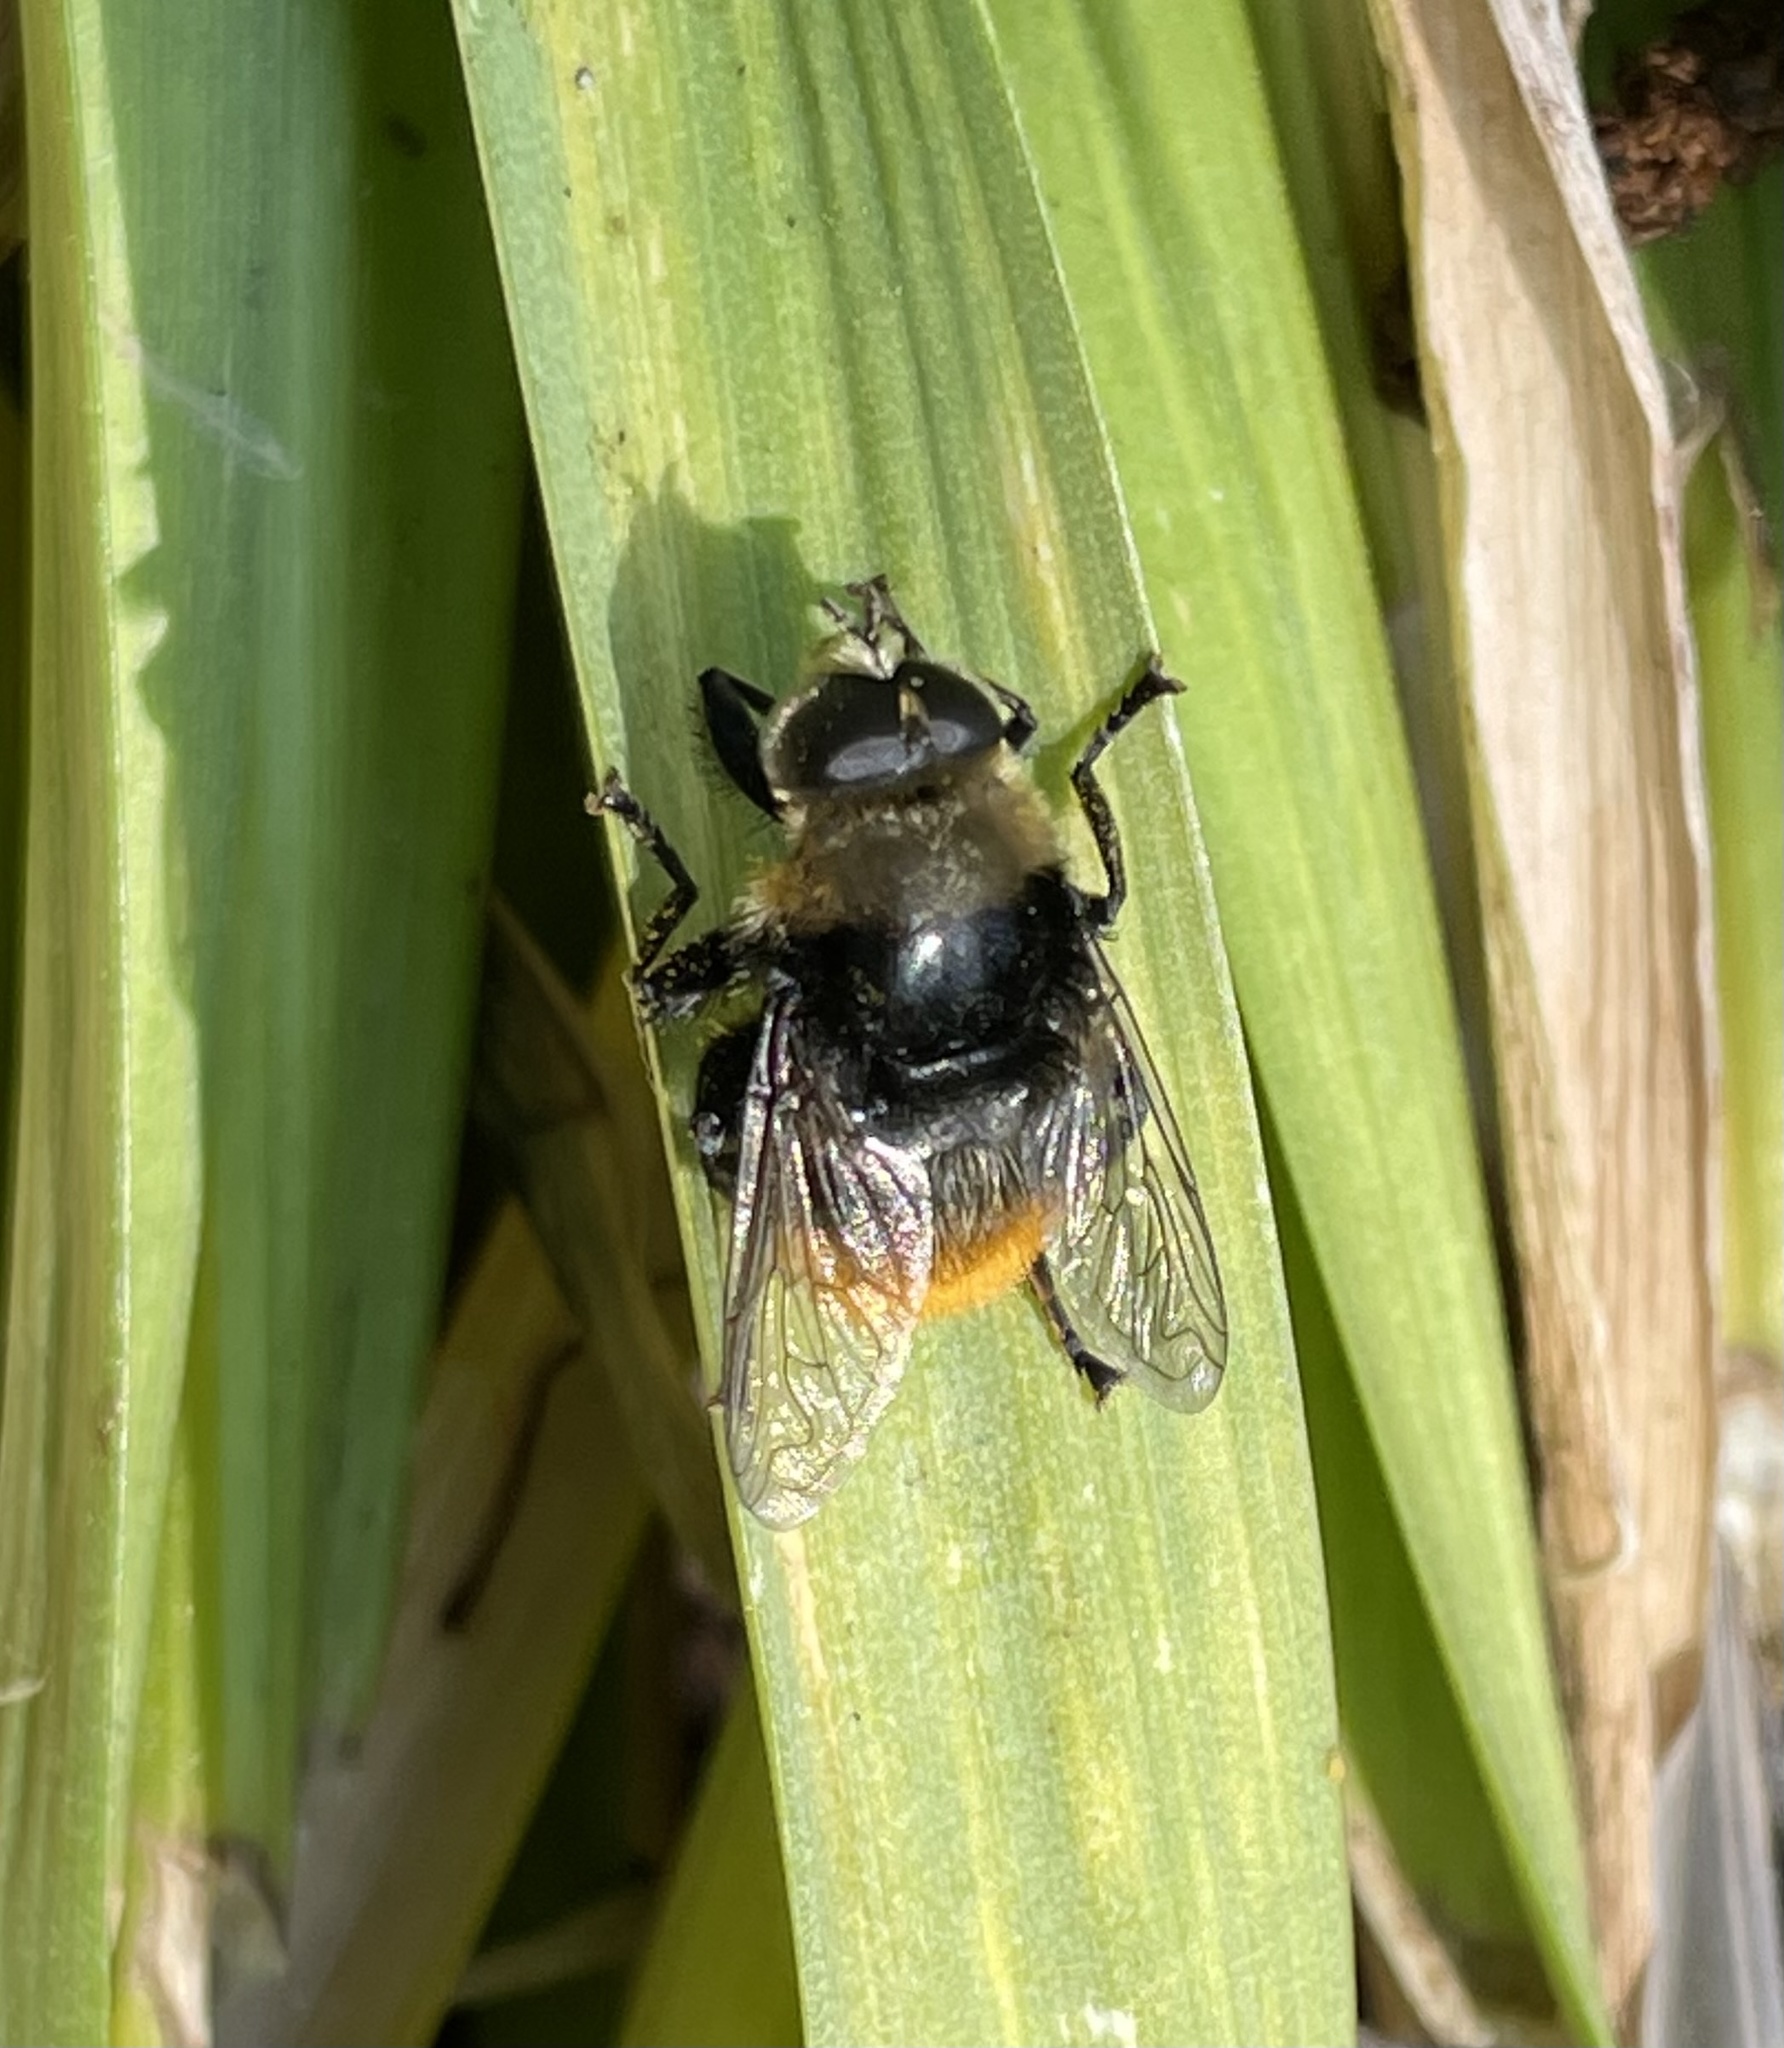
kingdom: Animalia
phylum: Arthropoda
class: Insecta
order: Diptera
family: Syrphidae
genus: Merodon
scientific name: Merodon equestris
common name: Greater bulb-fly
